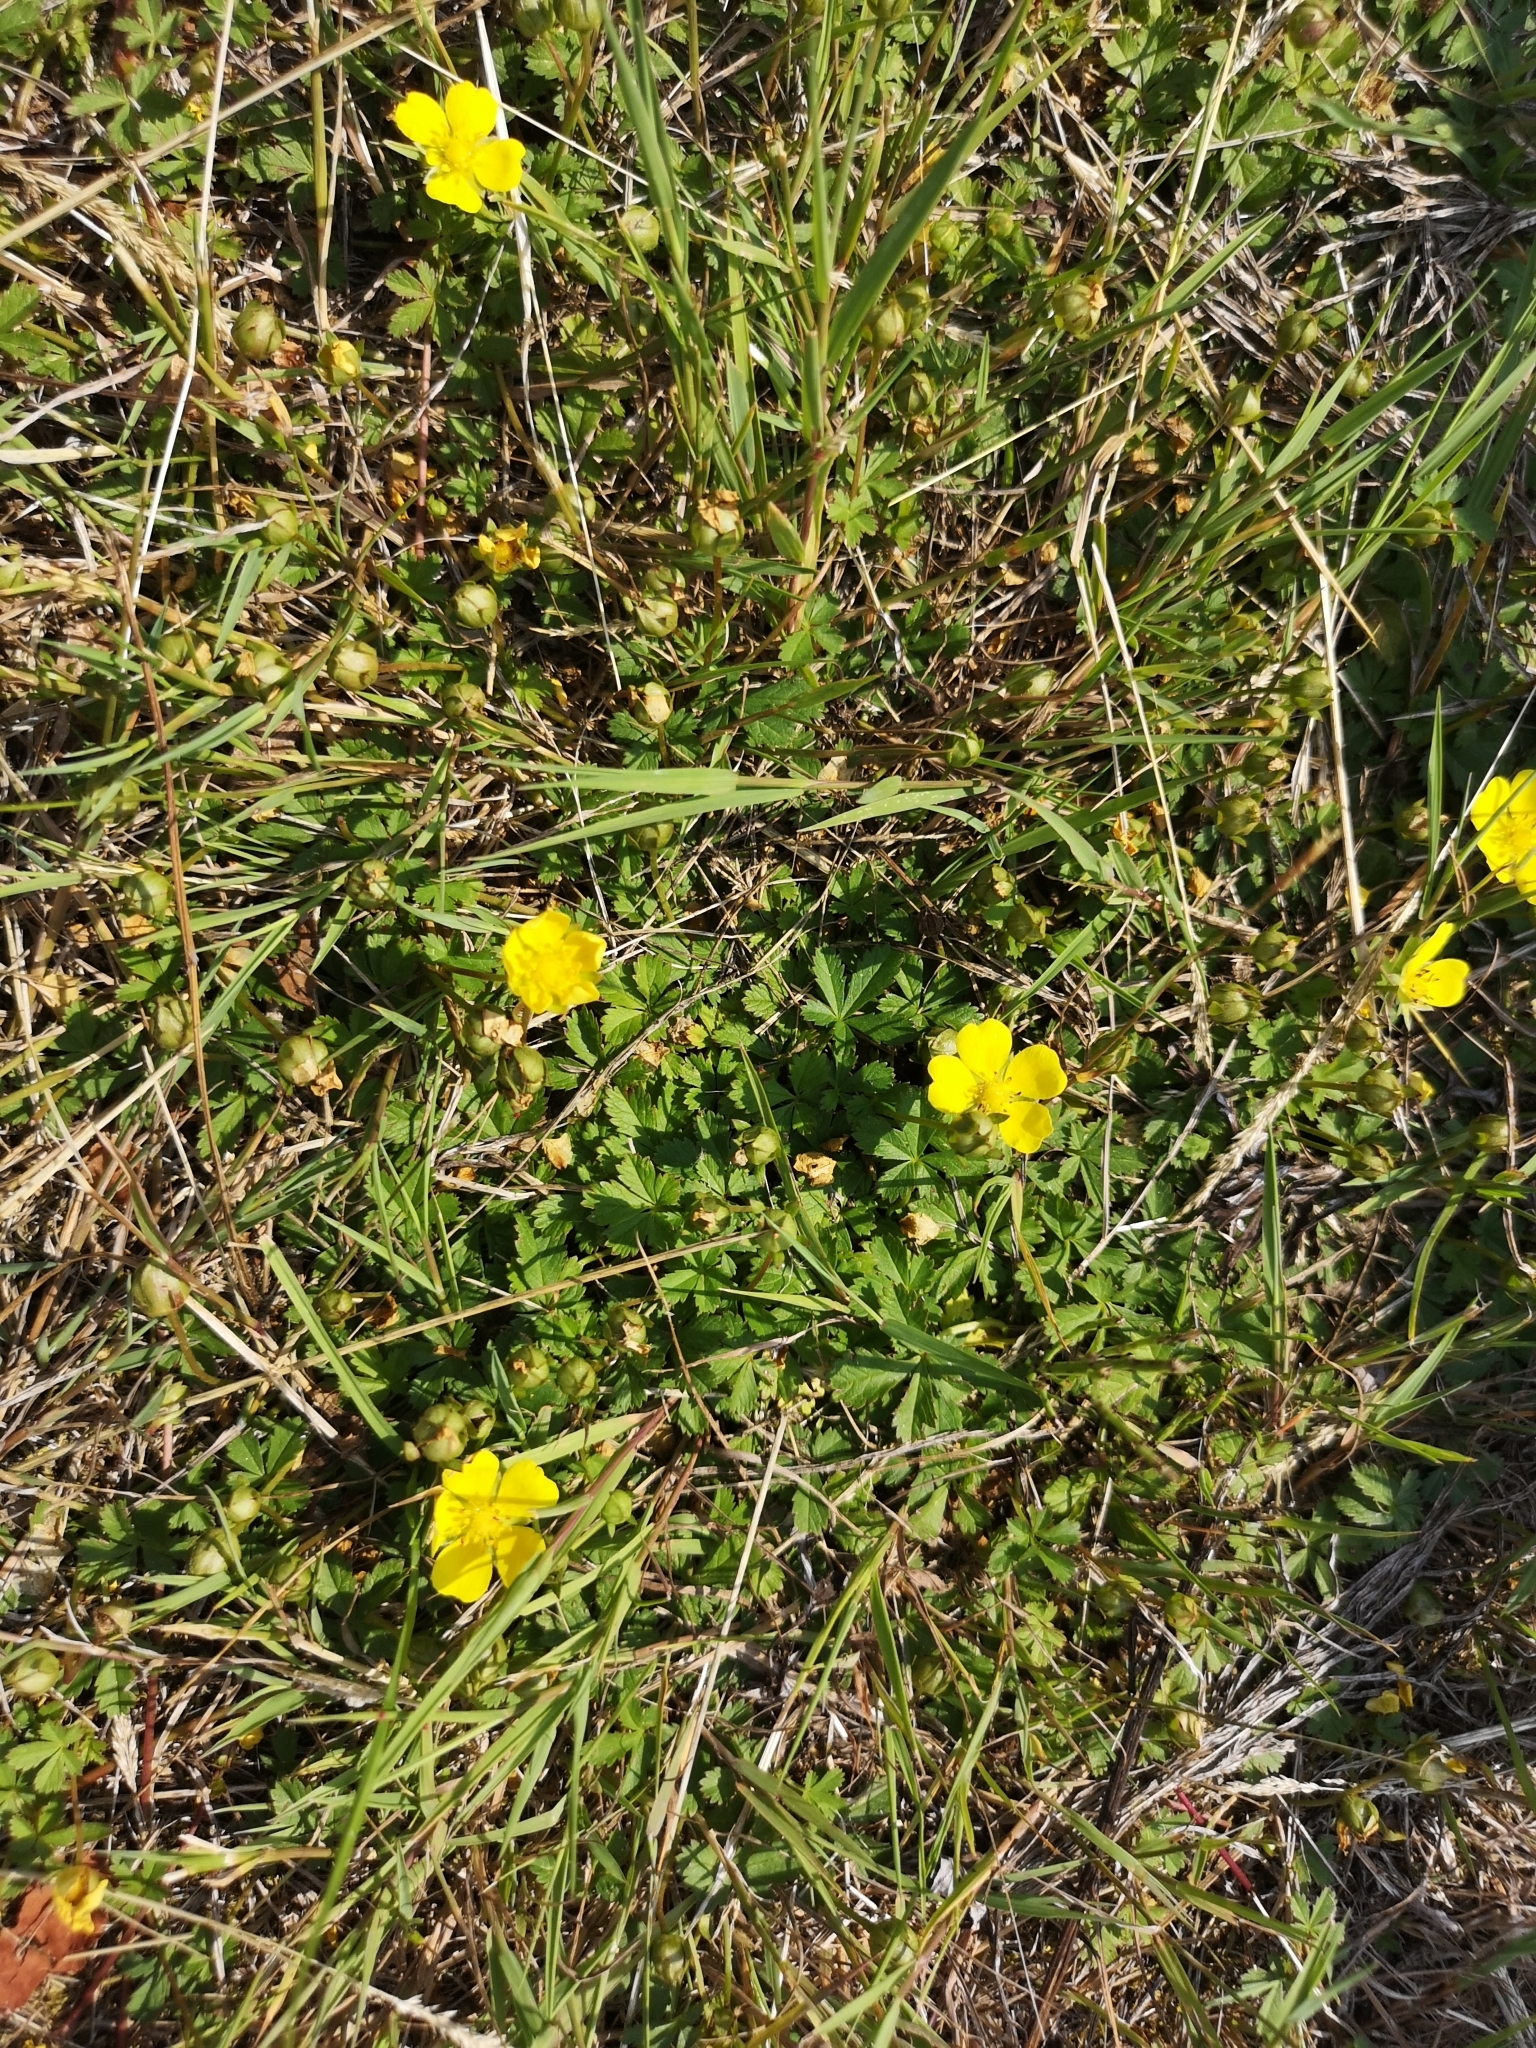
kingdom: Plantae
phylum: Tracheophyta
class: Magnoliopsida
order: Rosales
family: Rosaceae
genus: Potentilla
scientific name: Potentilla reptans
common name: Creeping cinquefoil
